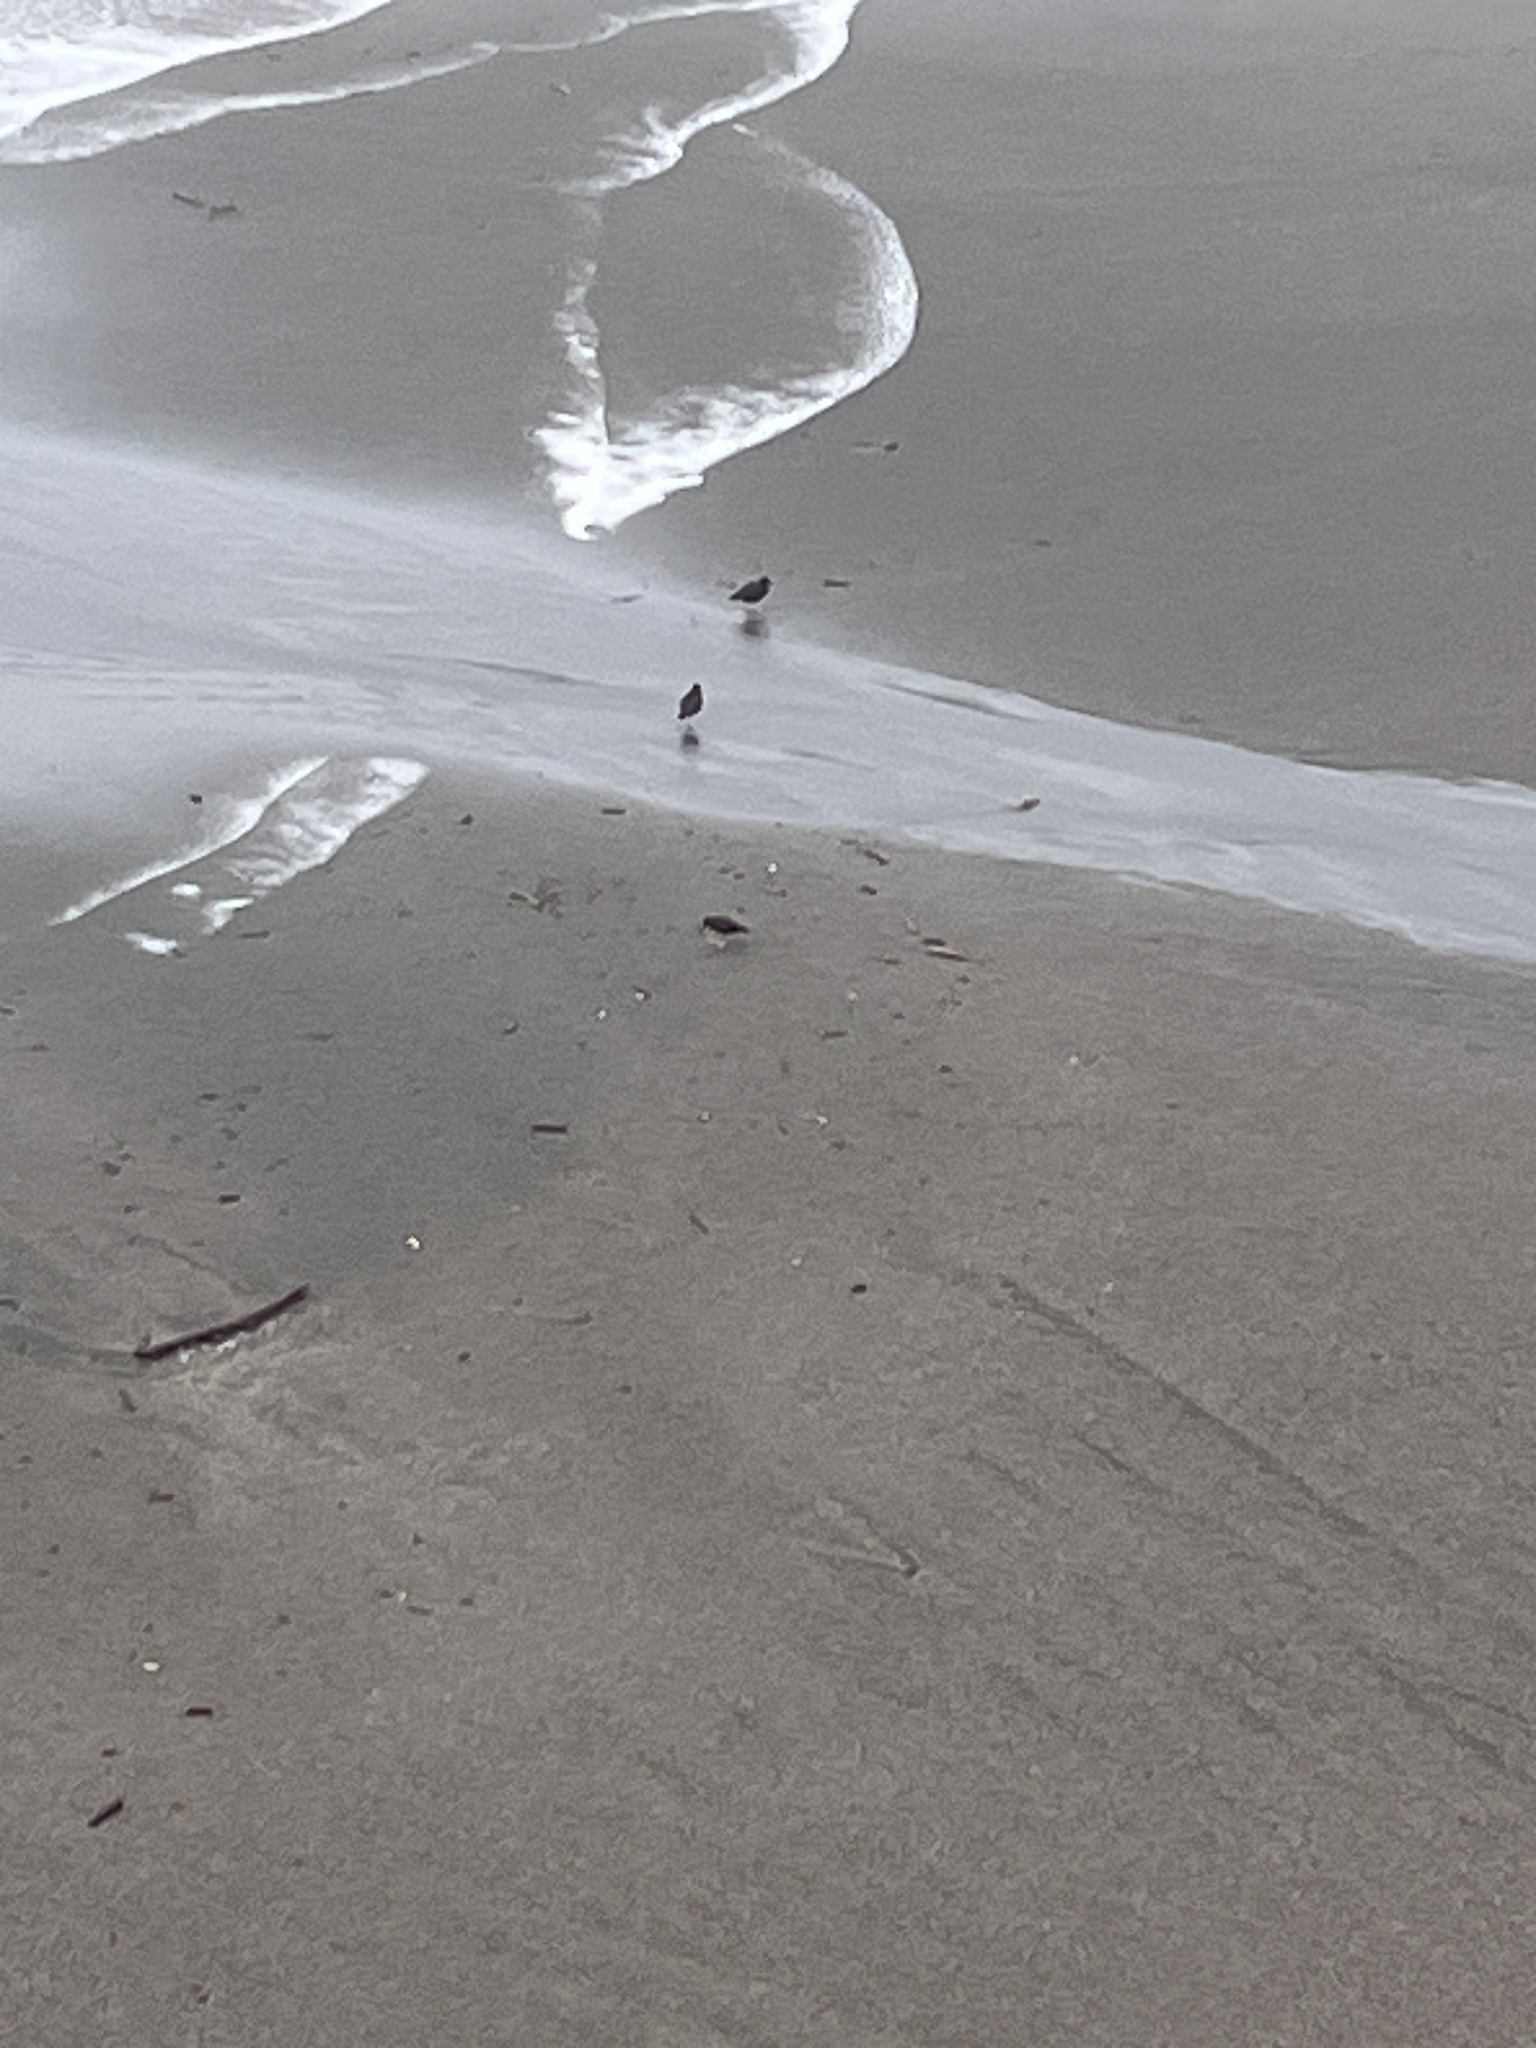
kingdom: Animalia
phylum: Chordata
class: Aves
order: Charadriiformes
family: Haematopodidae
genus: Haematopus
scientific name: Haematopus bachmani
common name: Black oystercatcher
